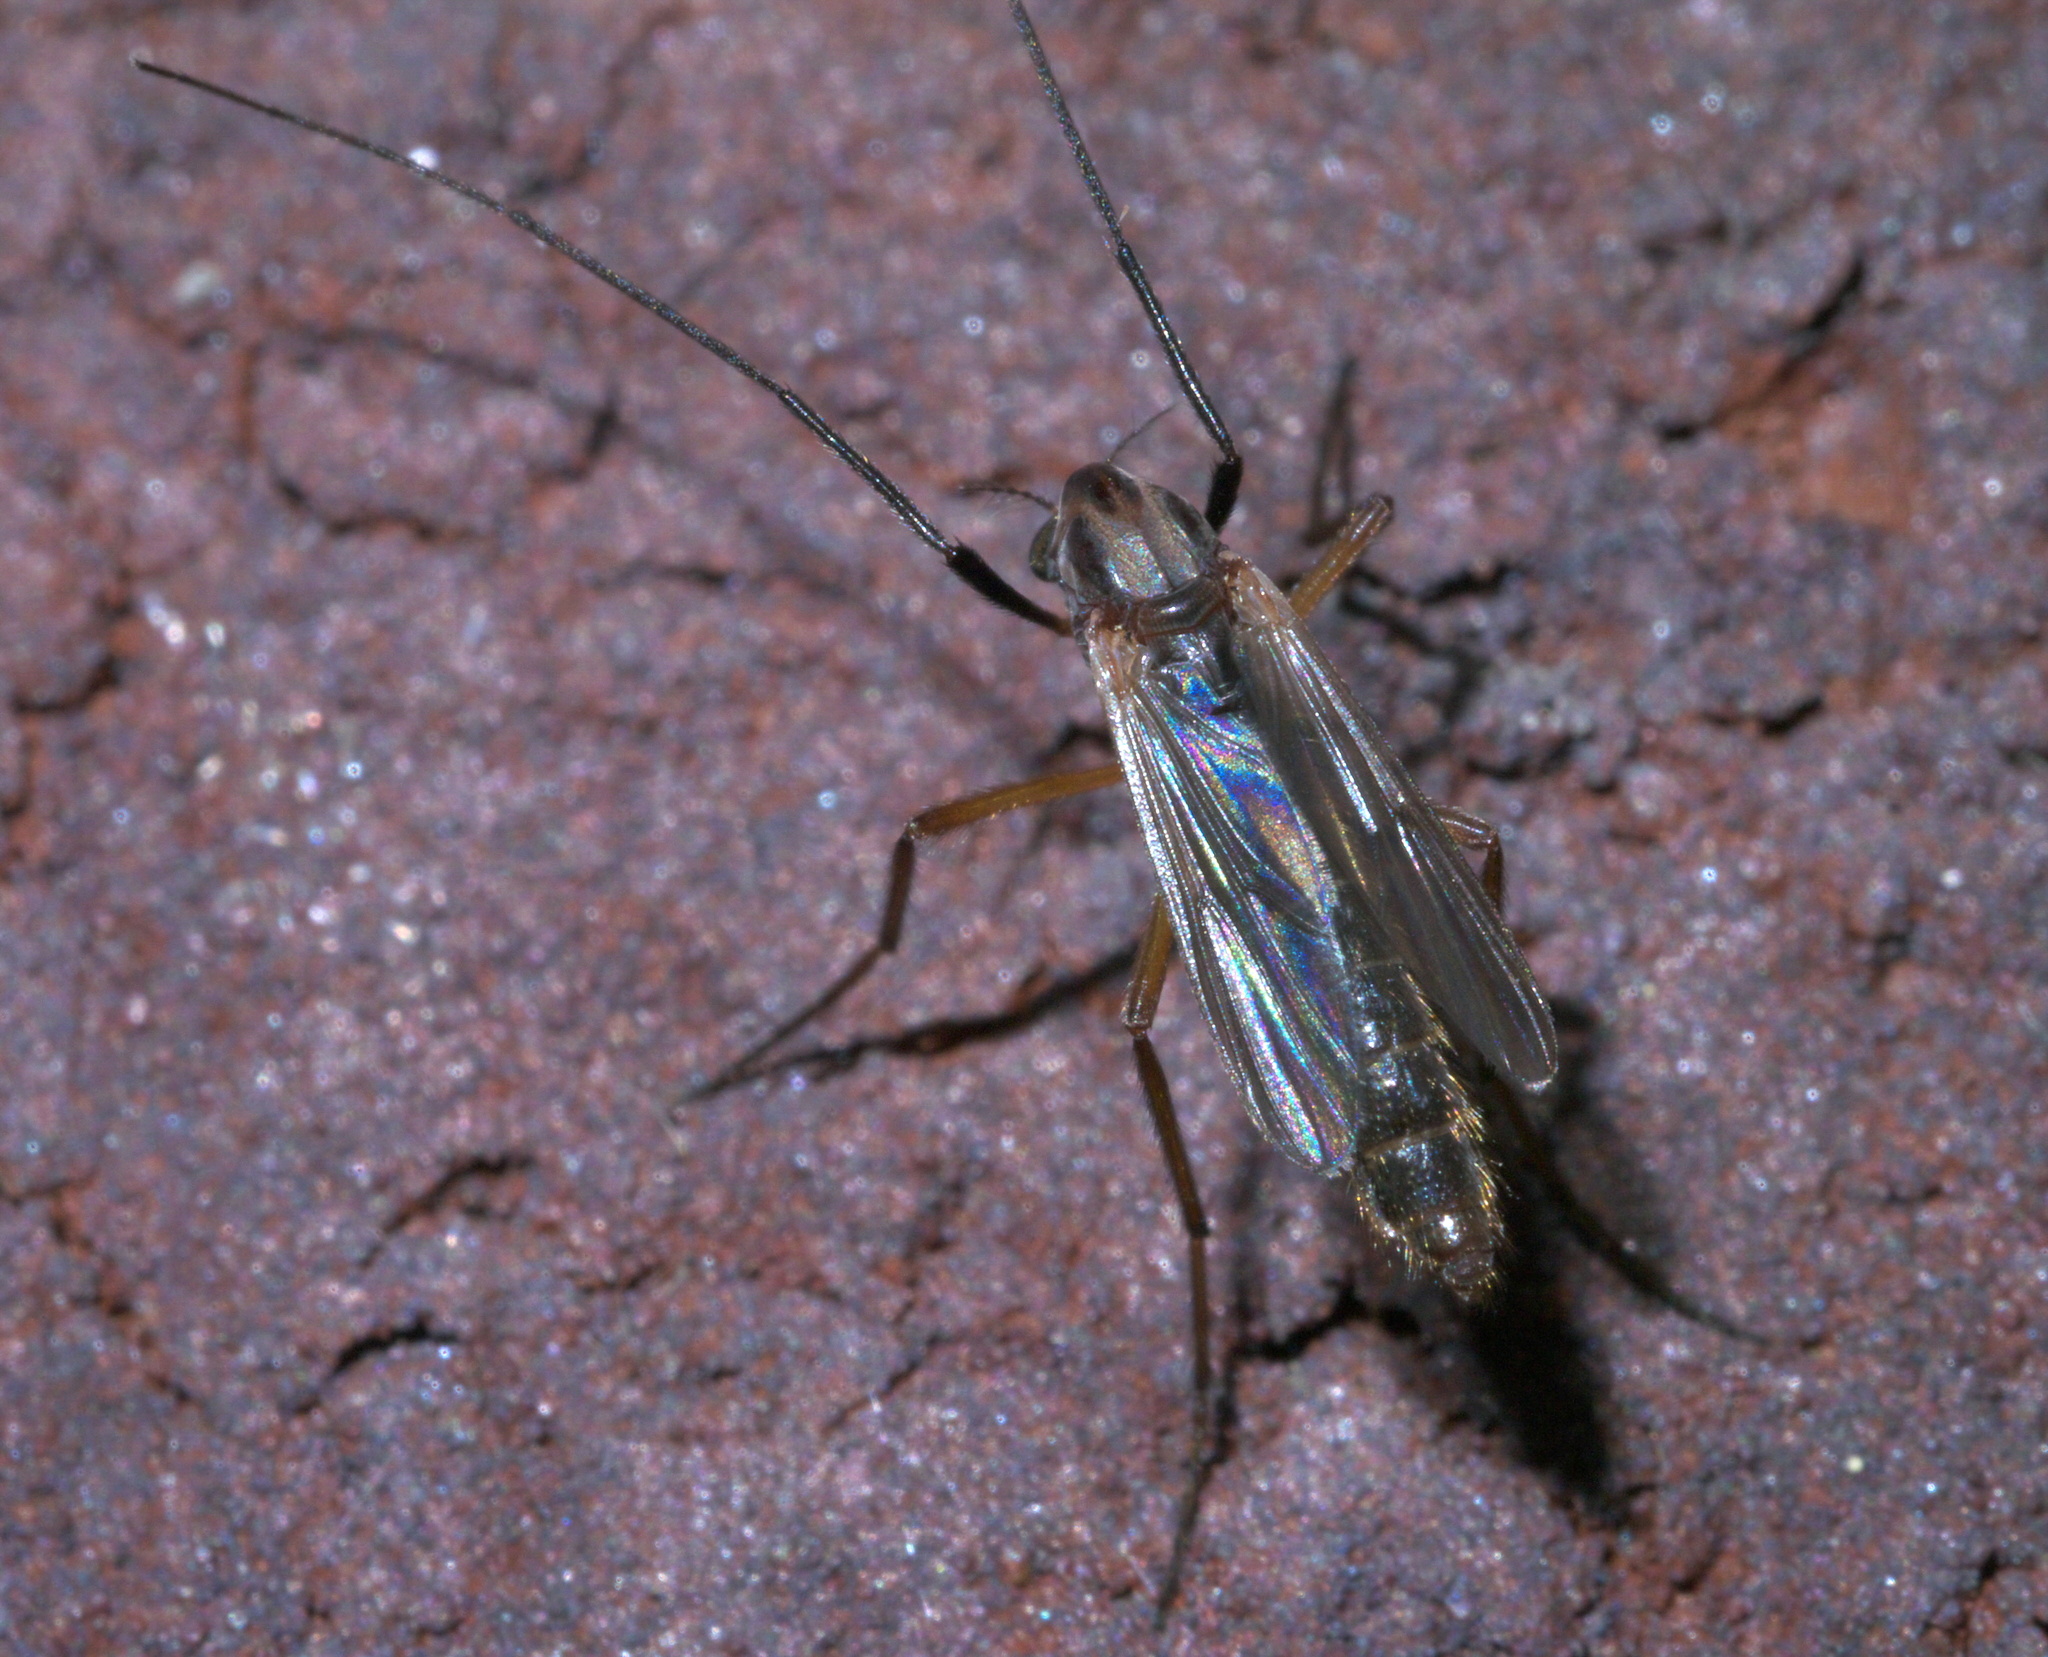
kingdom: Animalia
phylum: Arthropoda
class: Insecta
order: Diptera
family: Chironomidae
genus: Glyptotendipes
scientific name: Glyptotendipes testaceus
